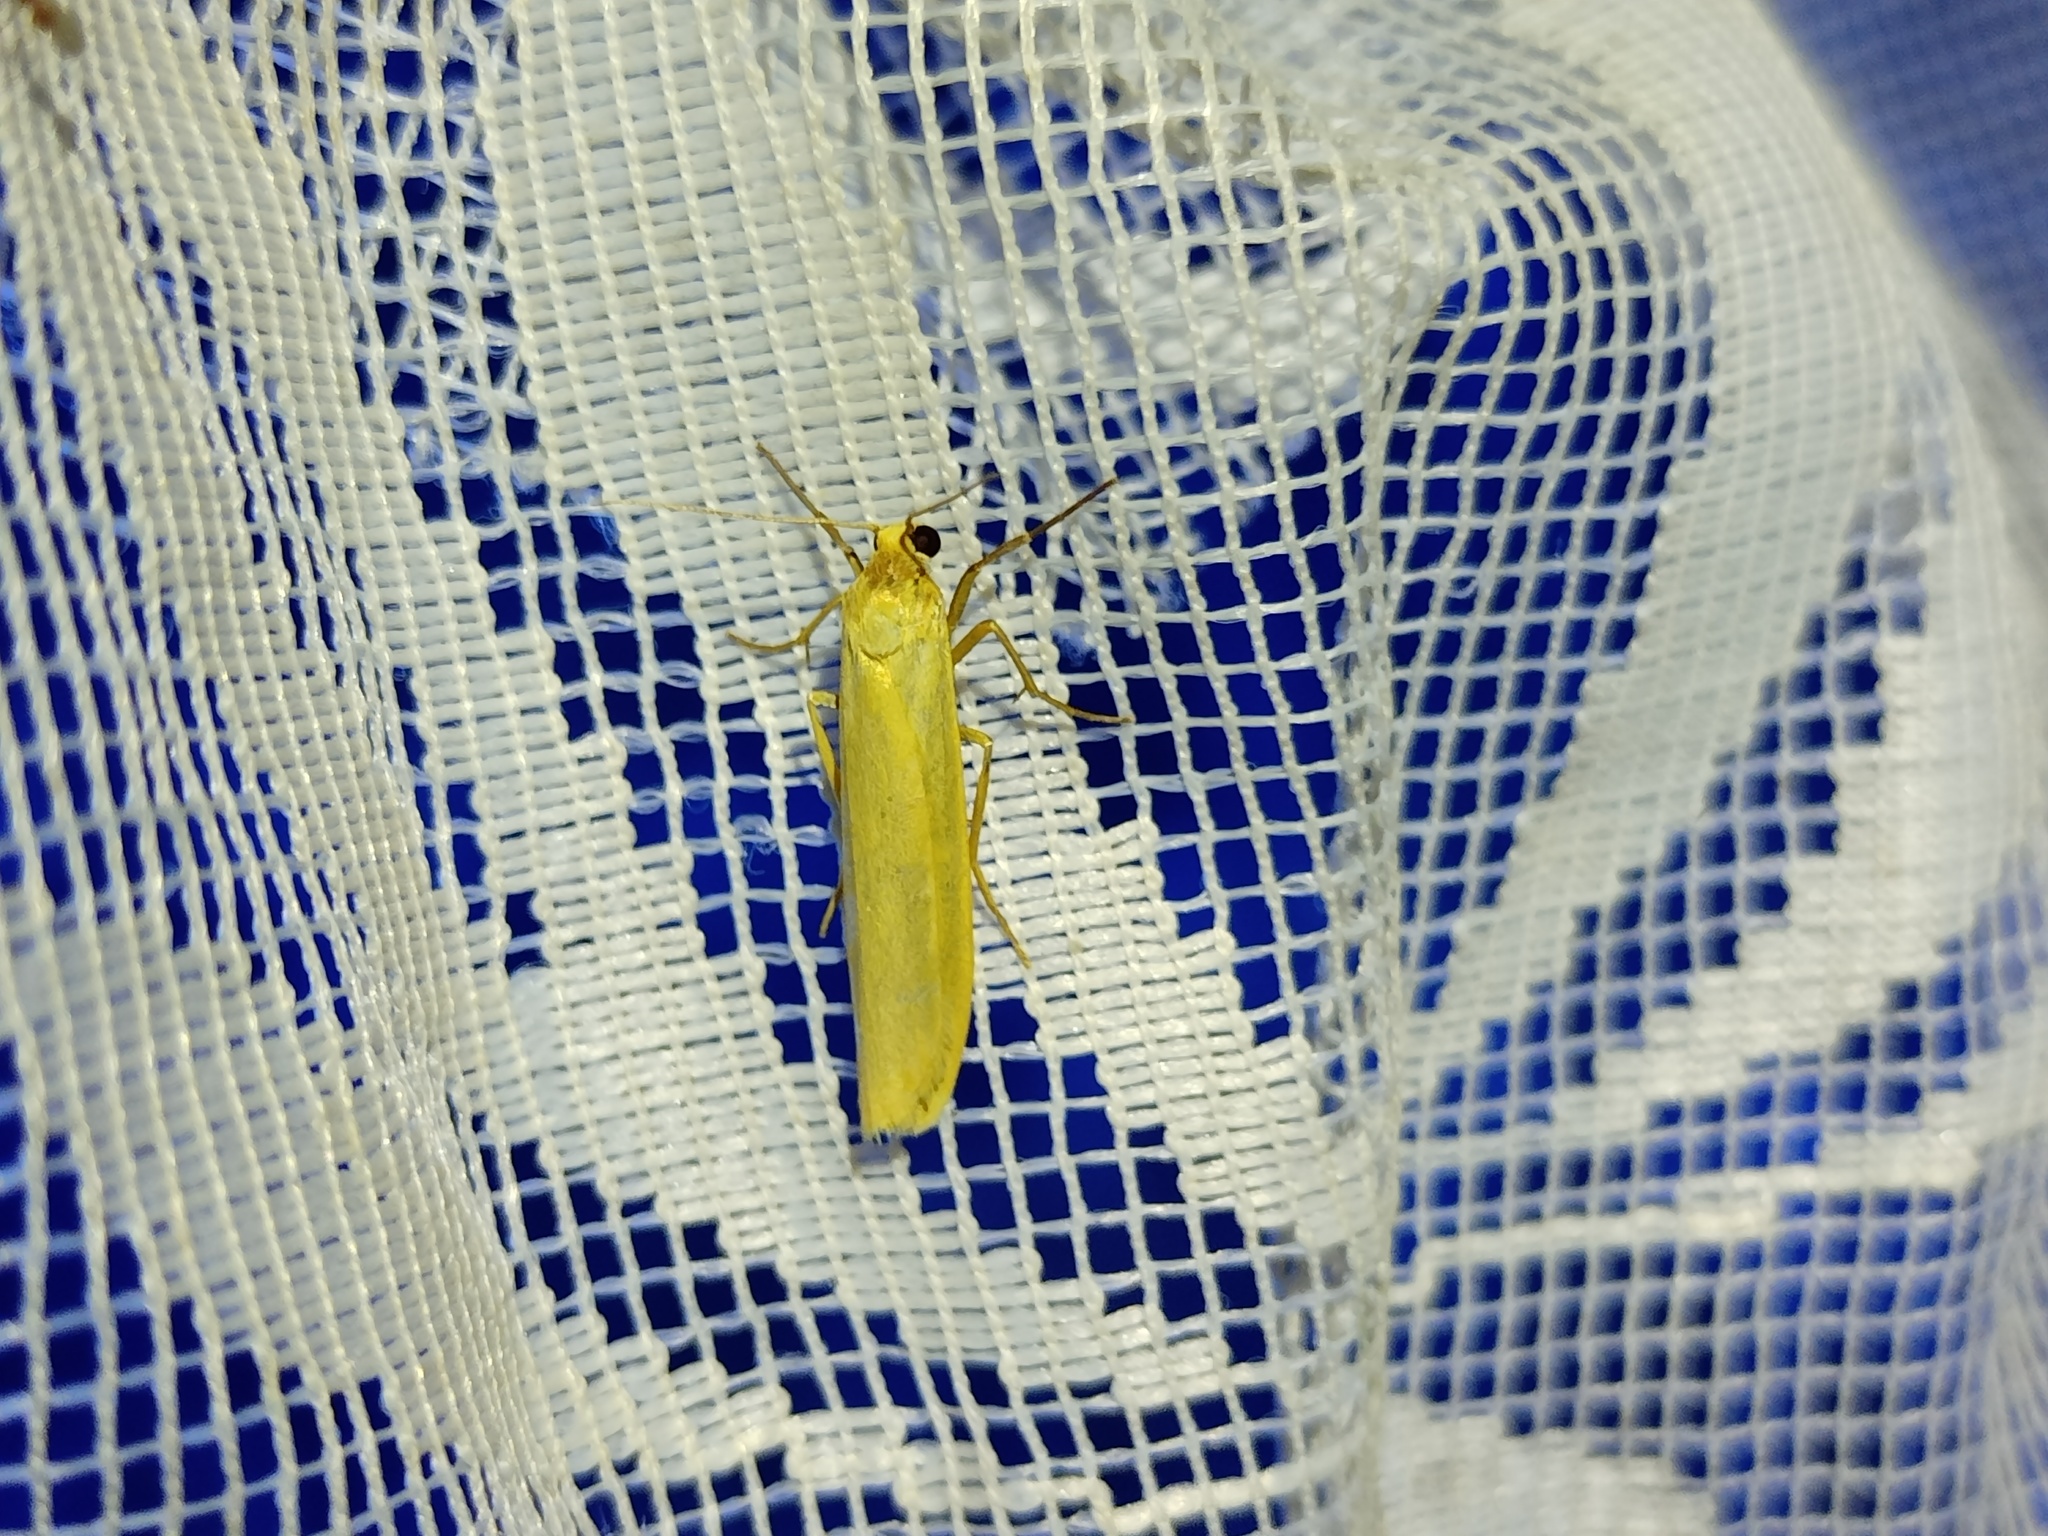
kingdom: Animalia
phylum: Arthropoda
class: Insecta
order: Lepidoptera
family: Erebidae
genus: Indalia
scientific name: Indalia pygmaeola
